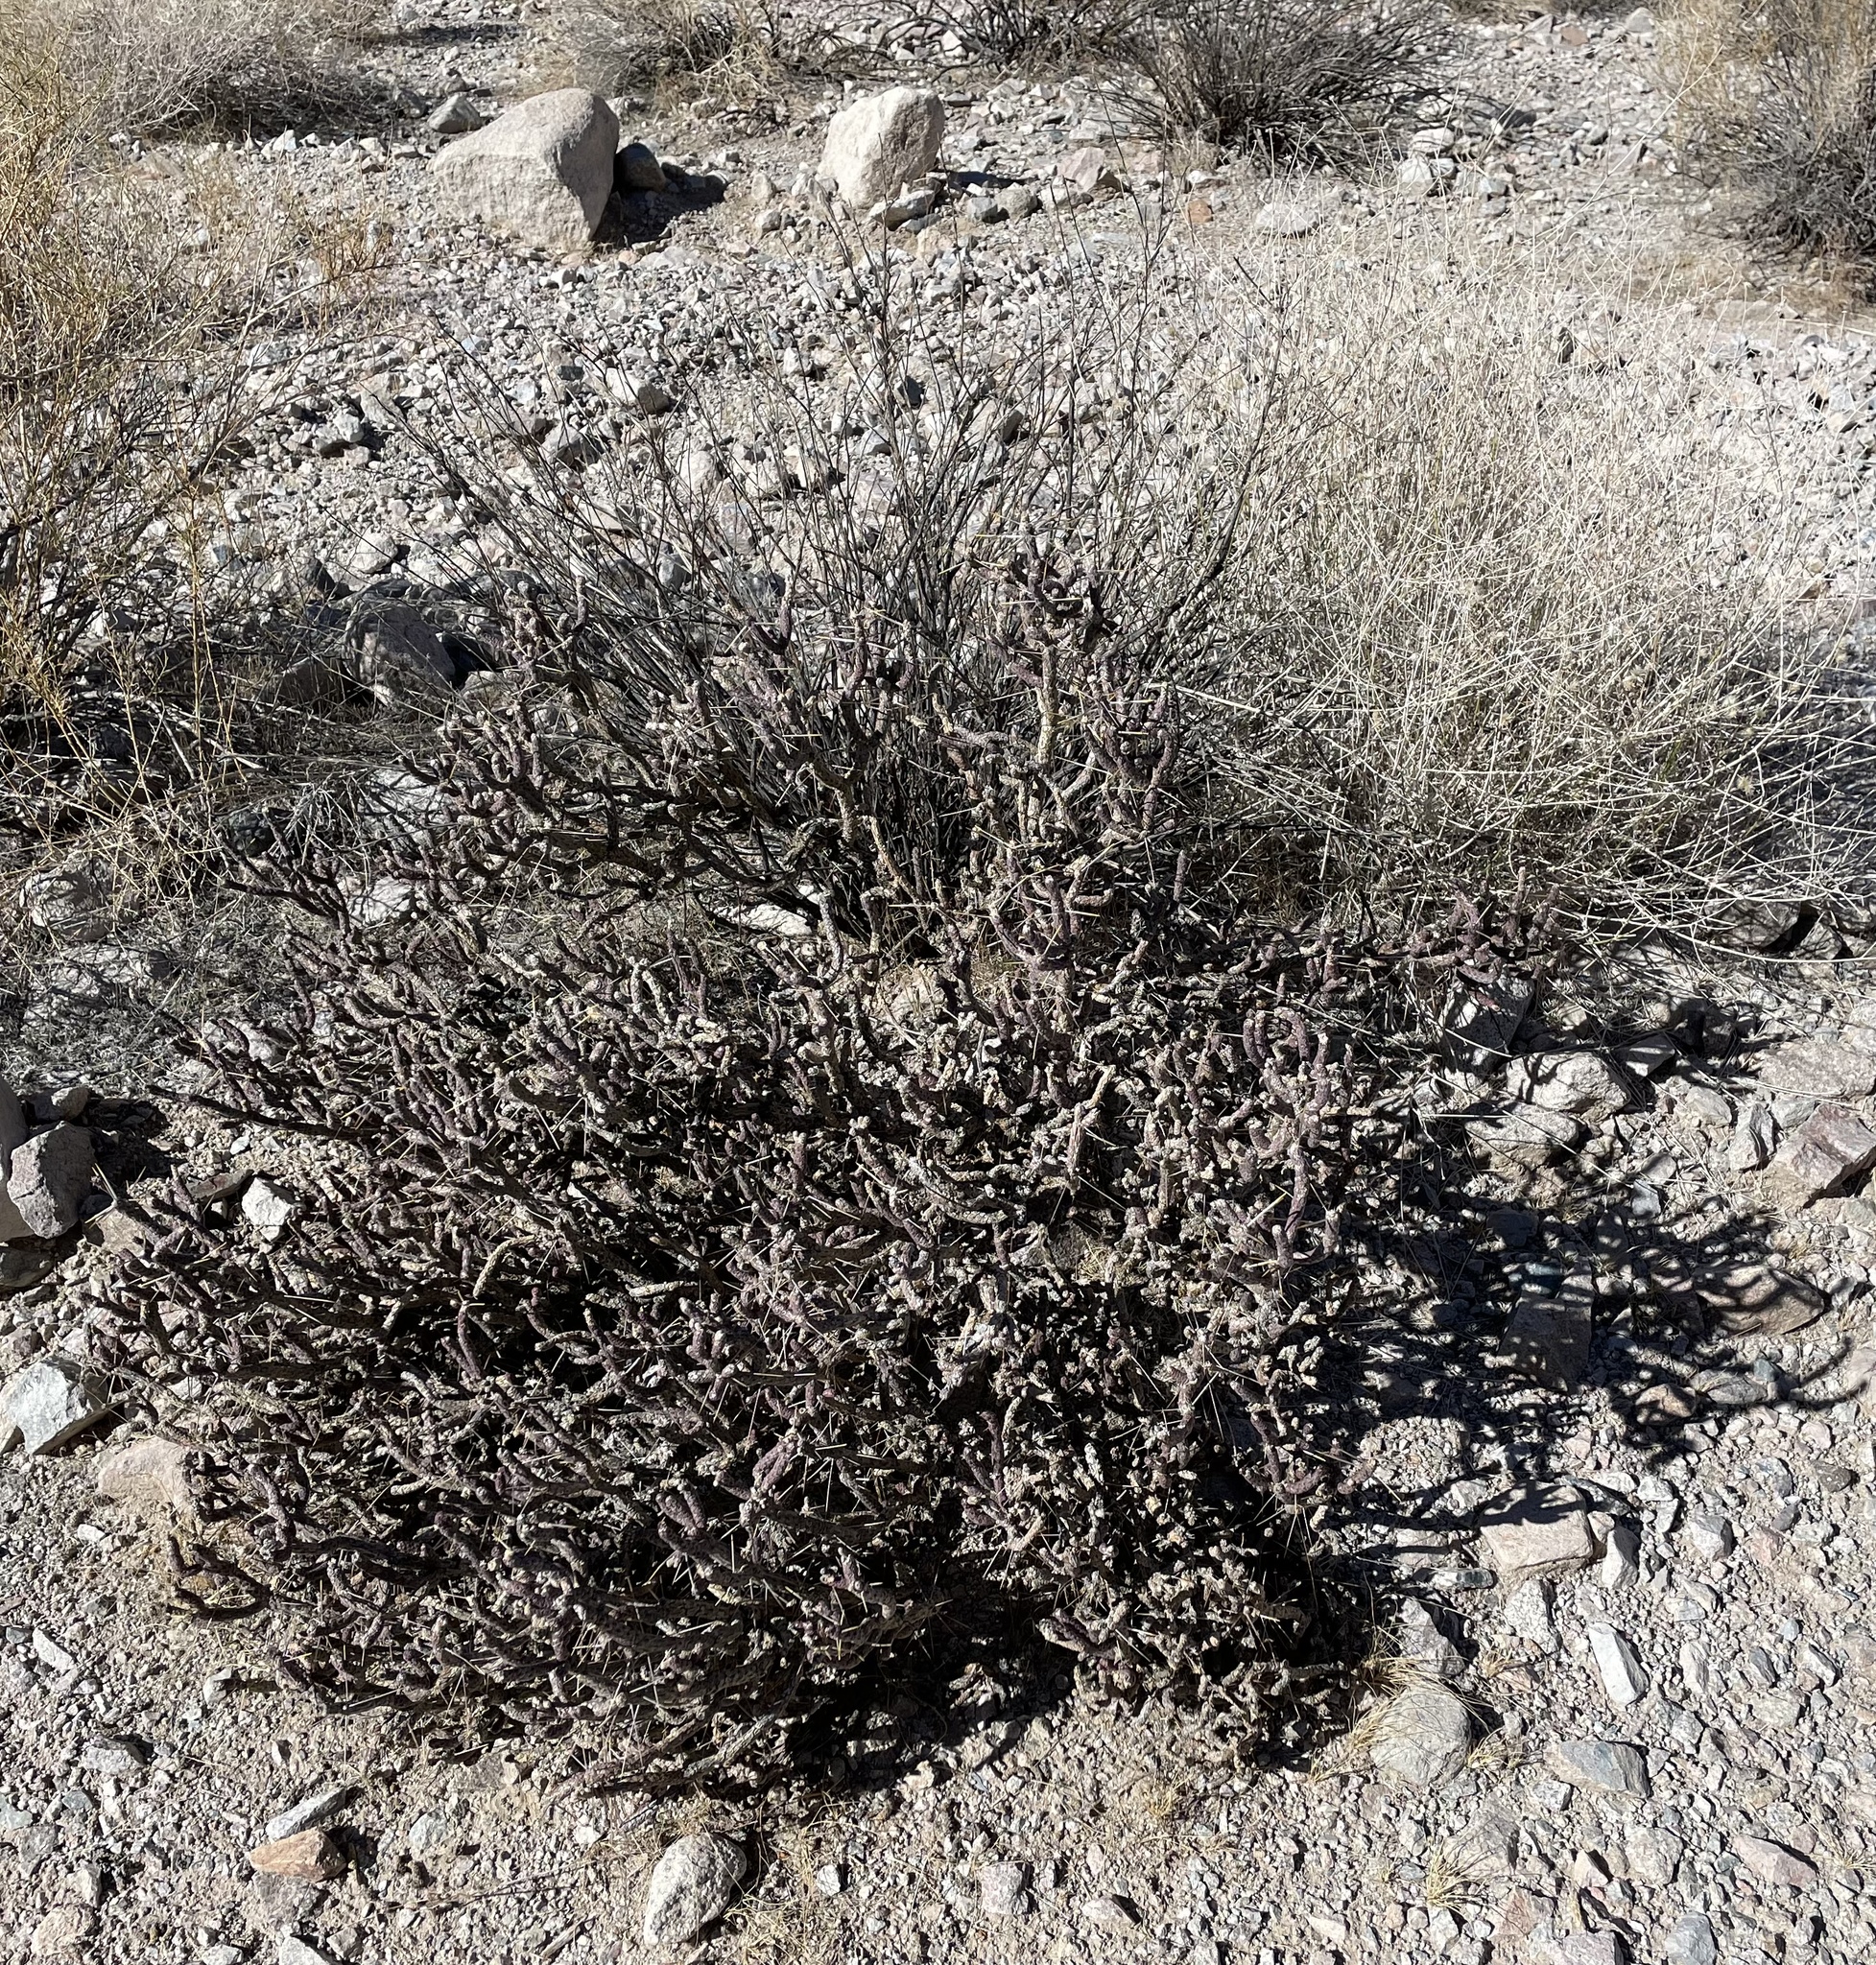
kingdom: Plantae
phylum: Tracheophyta
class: Magnoliopsida
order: Caryophyllales
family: Cactaceae
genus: Cylindropuntia
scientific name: Cylindropuntia ramosissima
